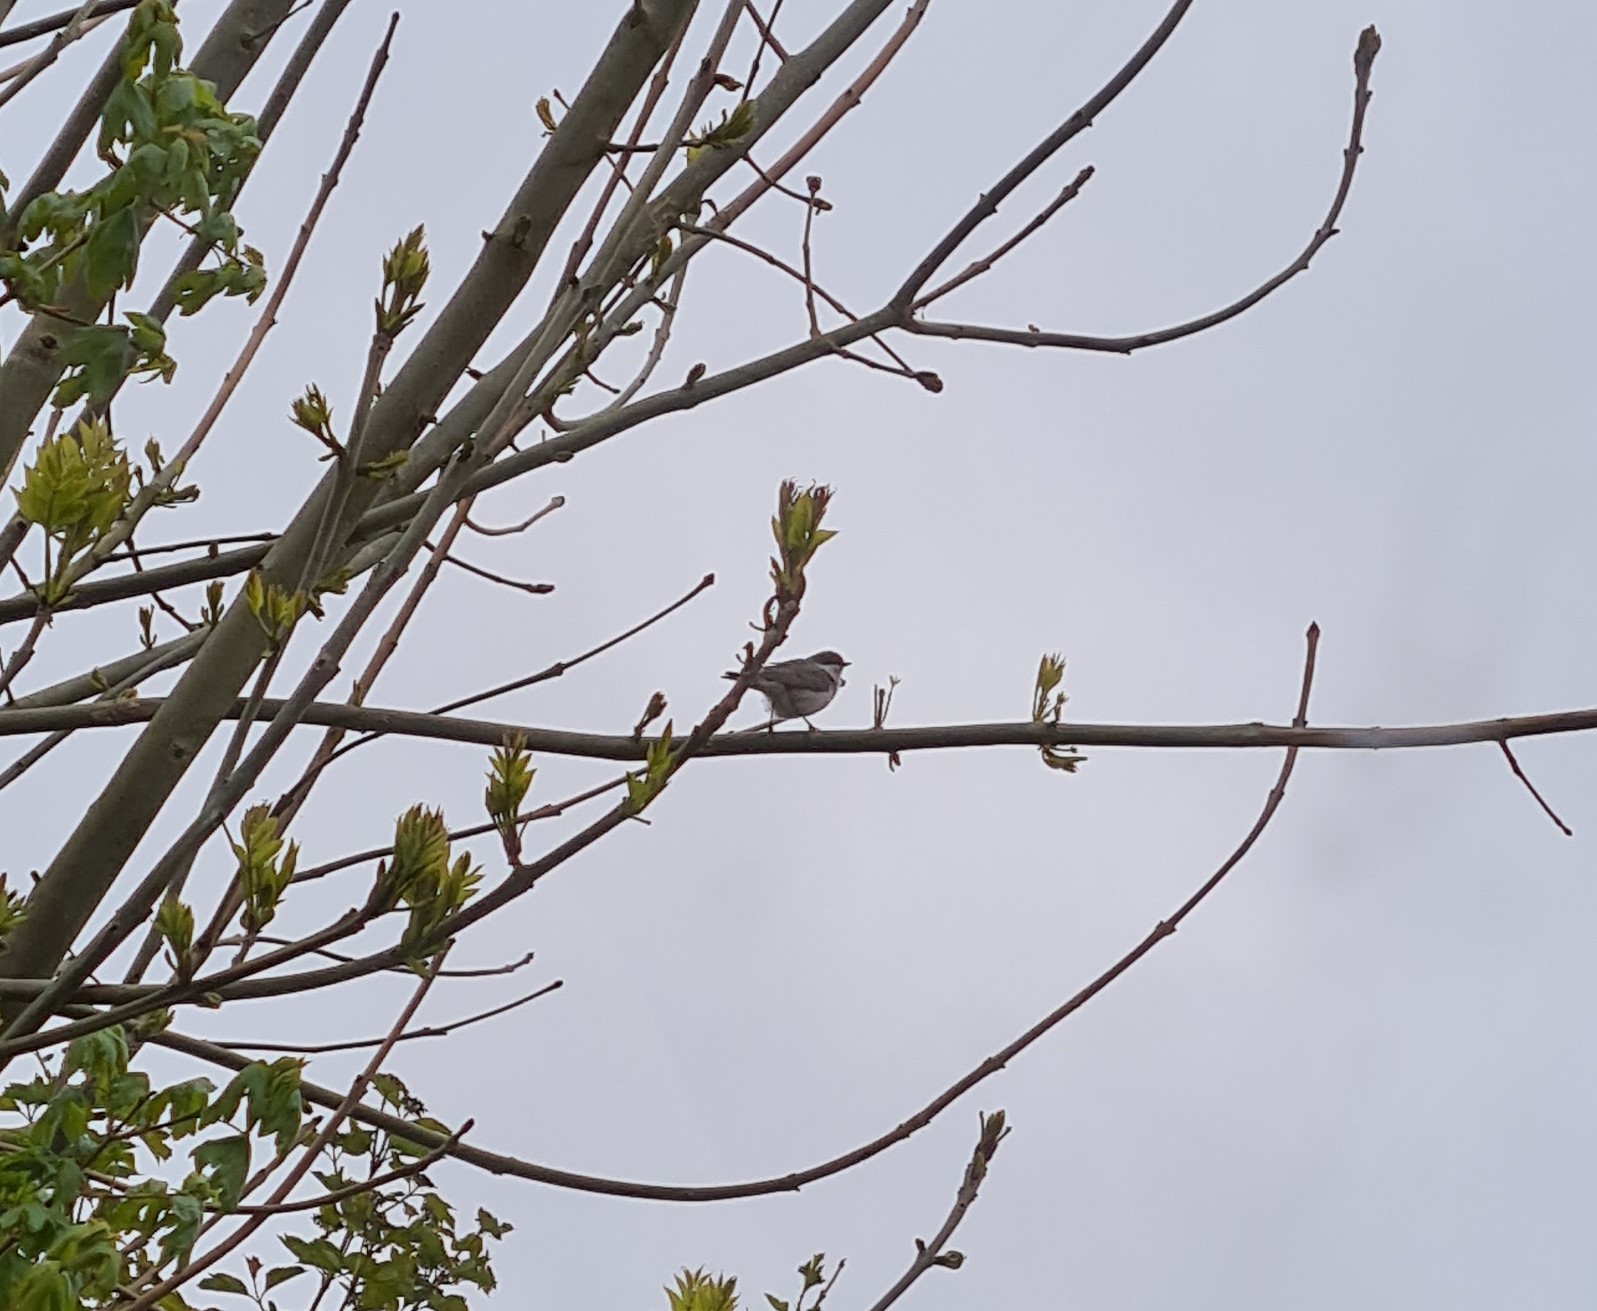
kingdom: Animalia
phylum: Chordata
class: Aves
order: Passeriformes
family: Sylviidae
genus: Sylvia
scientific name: Sylvia curruca
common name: Lesser whitethroat
